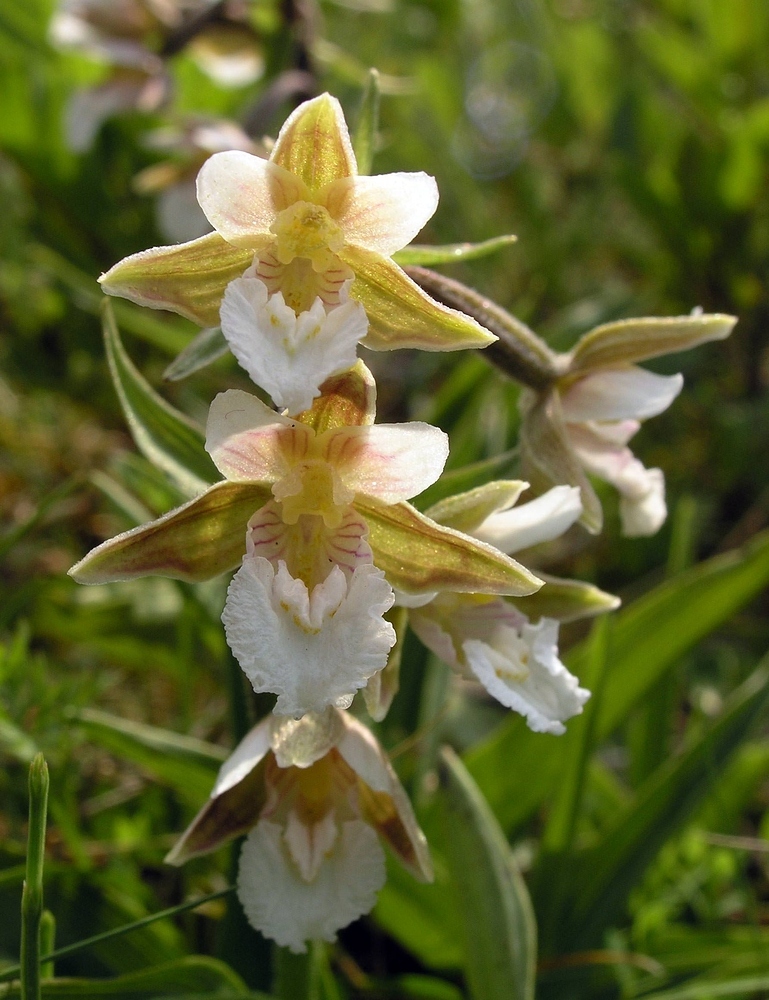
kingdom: Plantae
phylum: Tracheophyta
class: Liliopsida
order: Asparagales
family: Orchidaceae
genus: Epipactis
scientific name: Epipactis palustris
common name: Marsh helleborine
